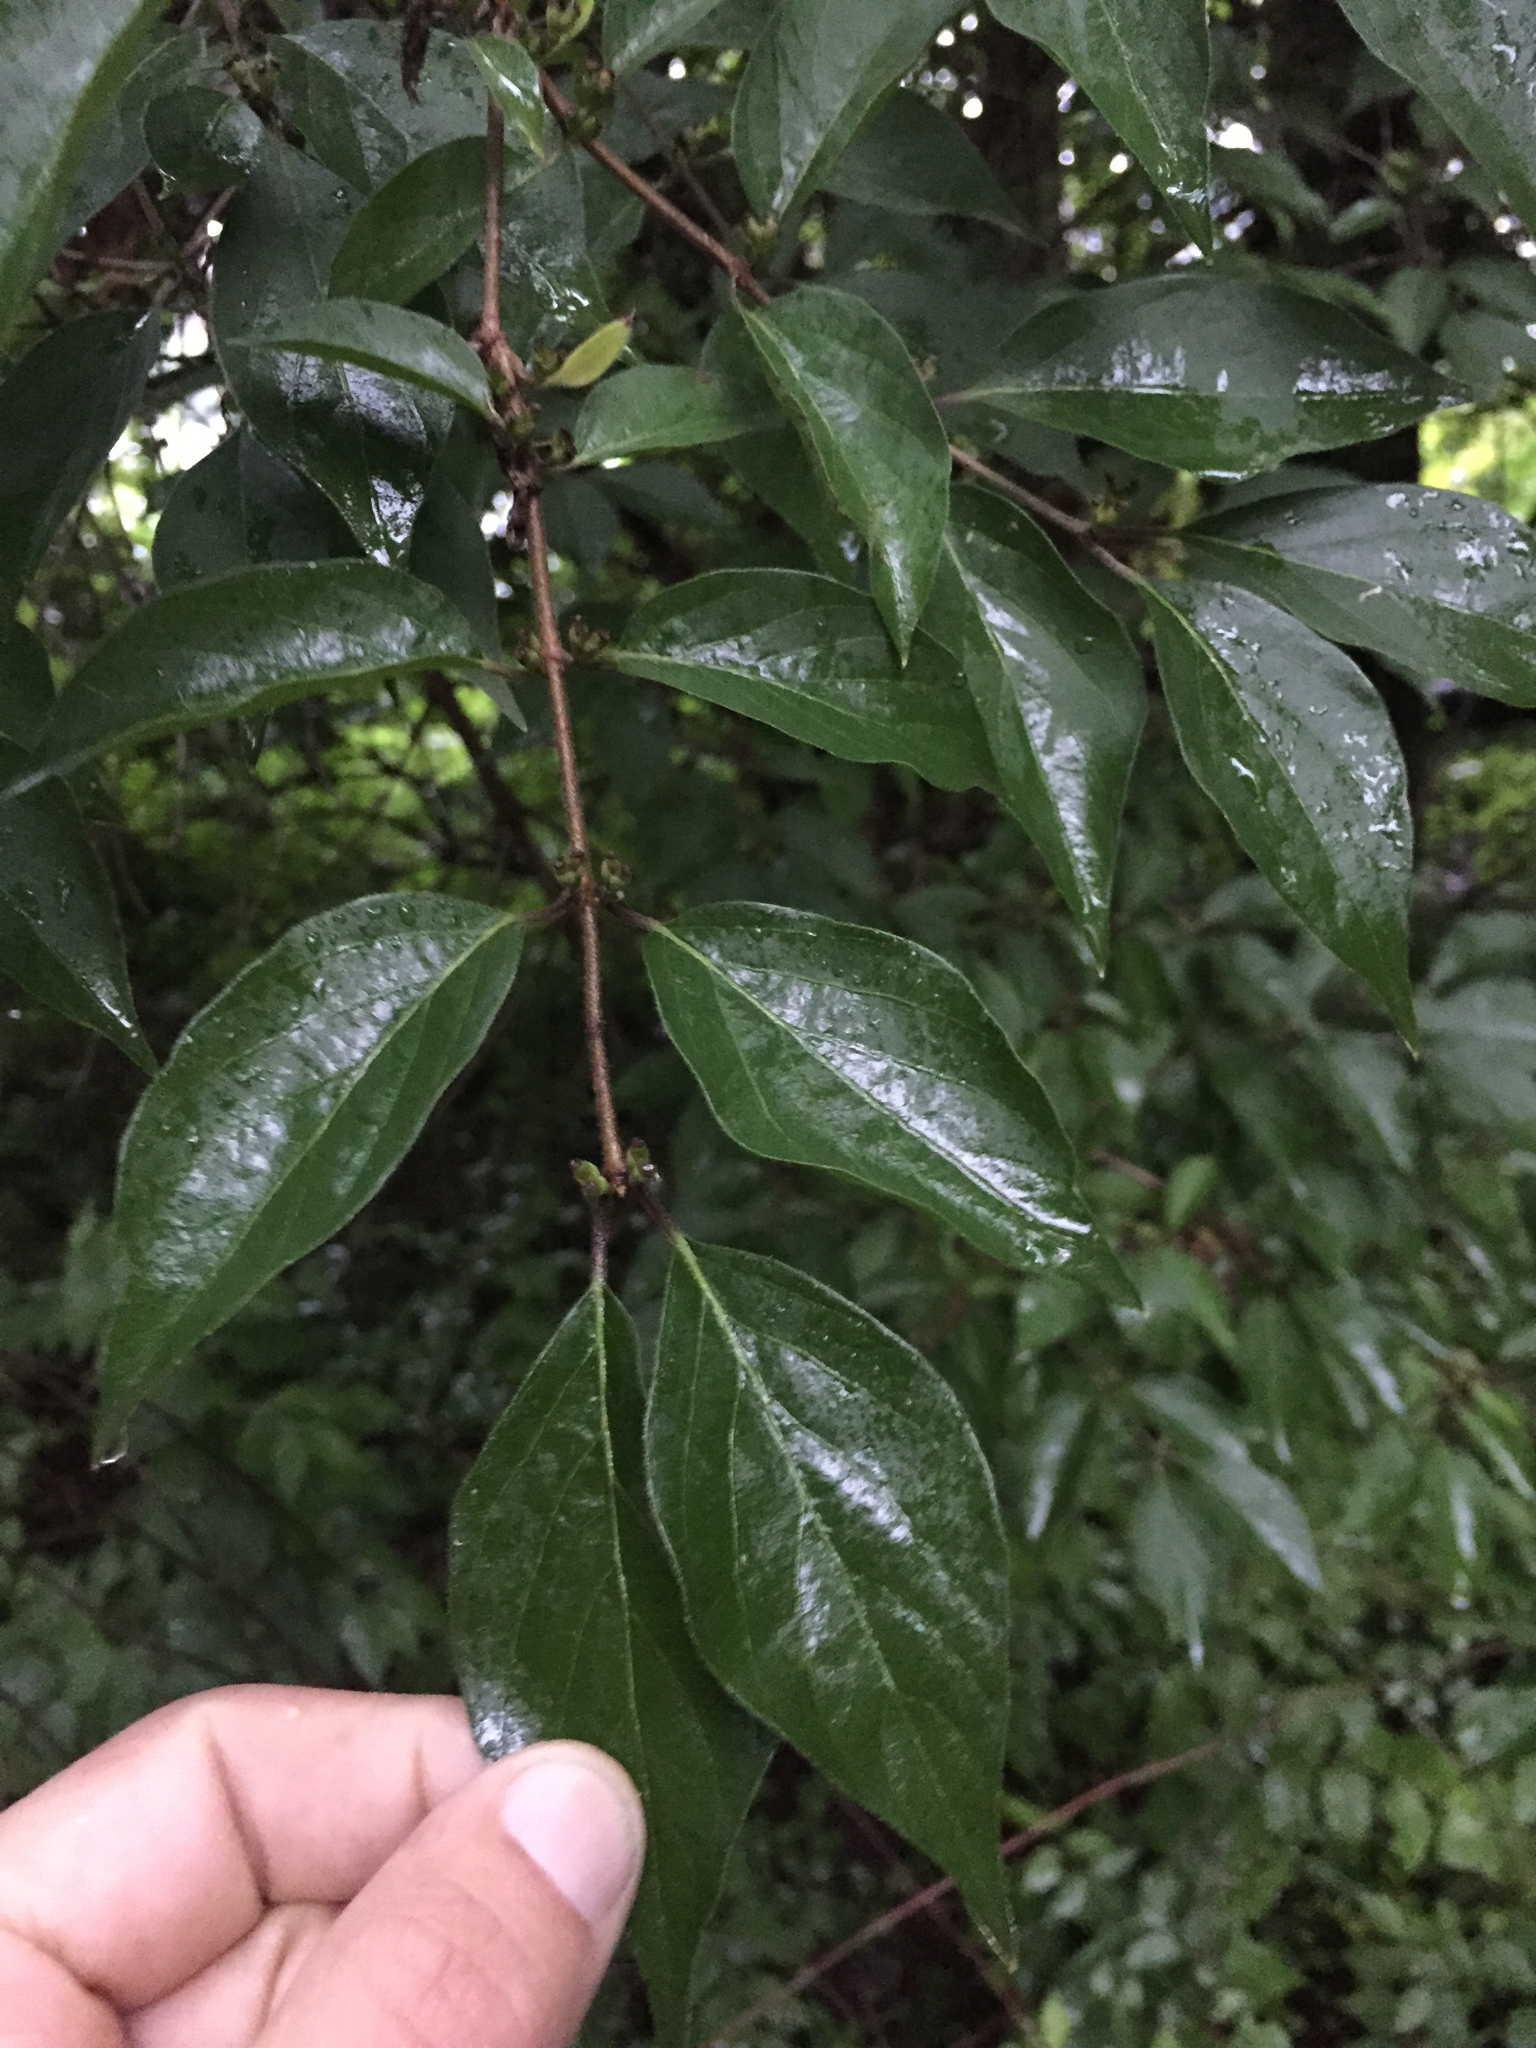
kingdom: Plantae
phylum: Tracheophyta
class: Magnoliopsida
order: Dipsacales
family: Caprifoliaceae
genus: Lonicera
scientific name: Lonicera maackii
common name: Amur honeysuckle
